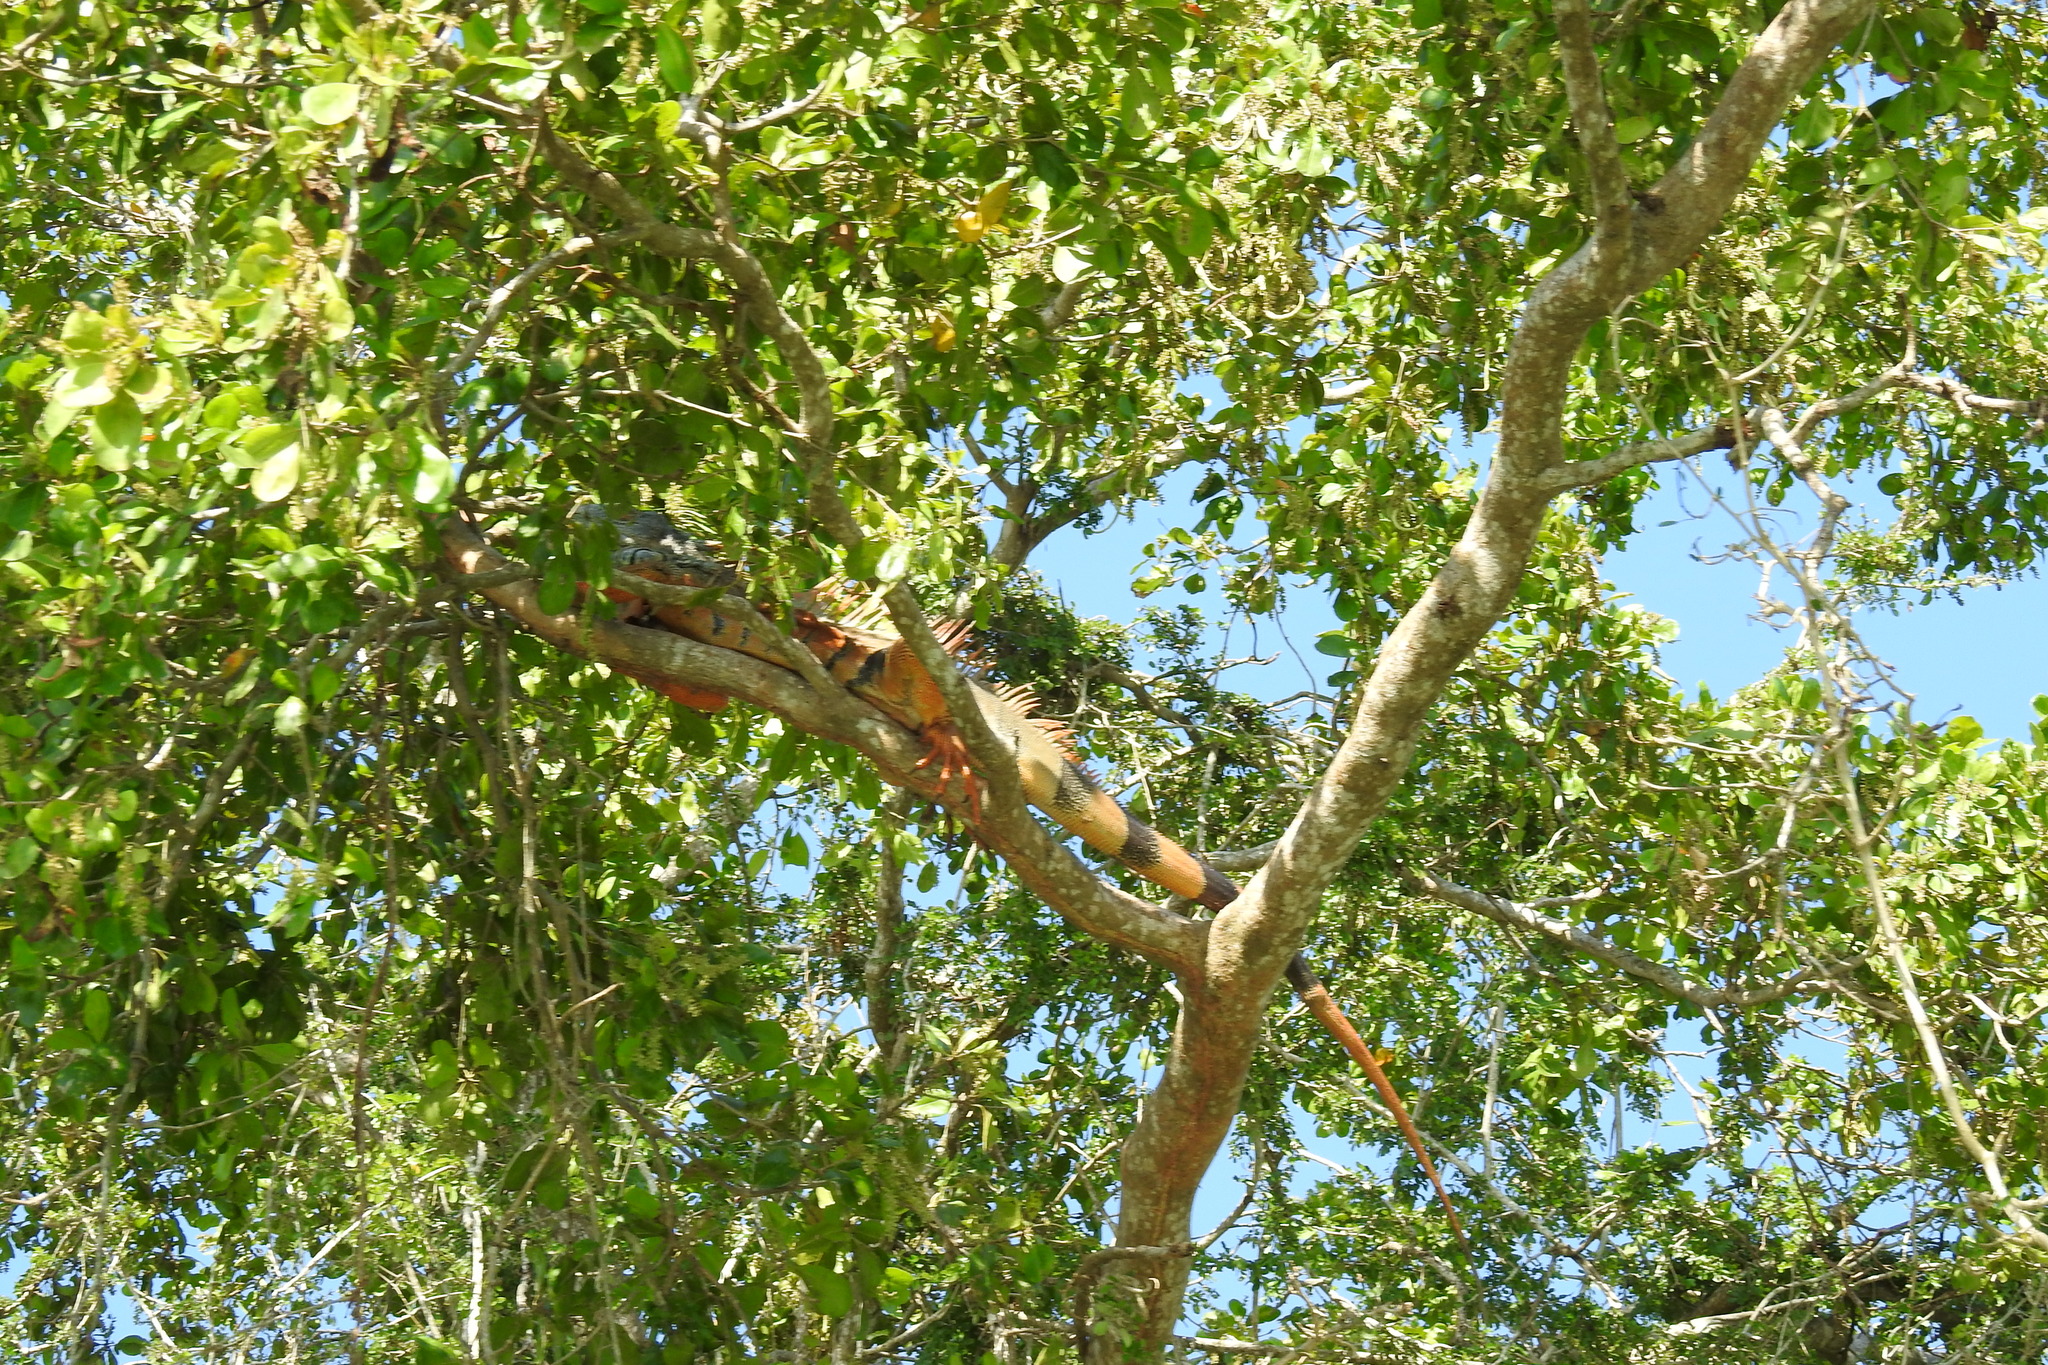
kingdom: Animalia
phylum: Chordata
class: Squamata
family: Iguanidae
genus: Iguana
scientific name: Iguana iguana
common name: Green iguana
